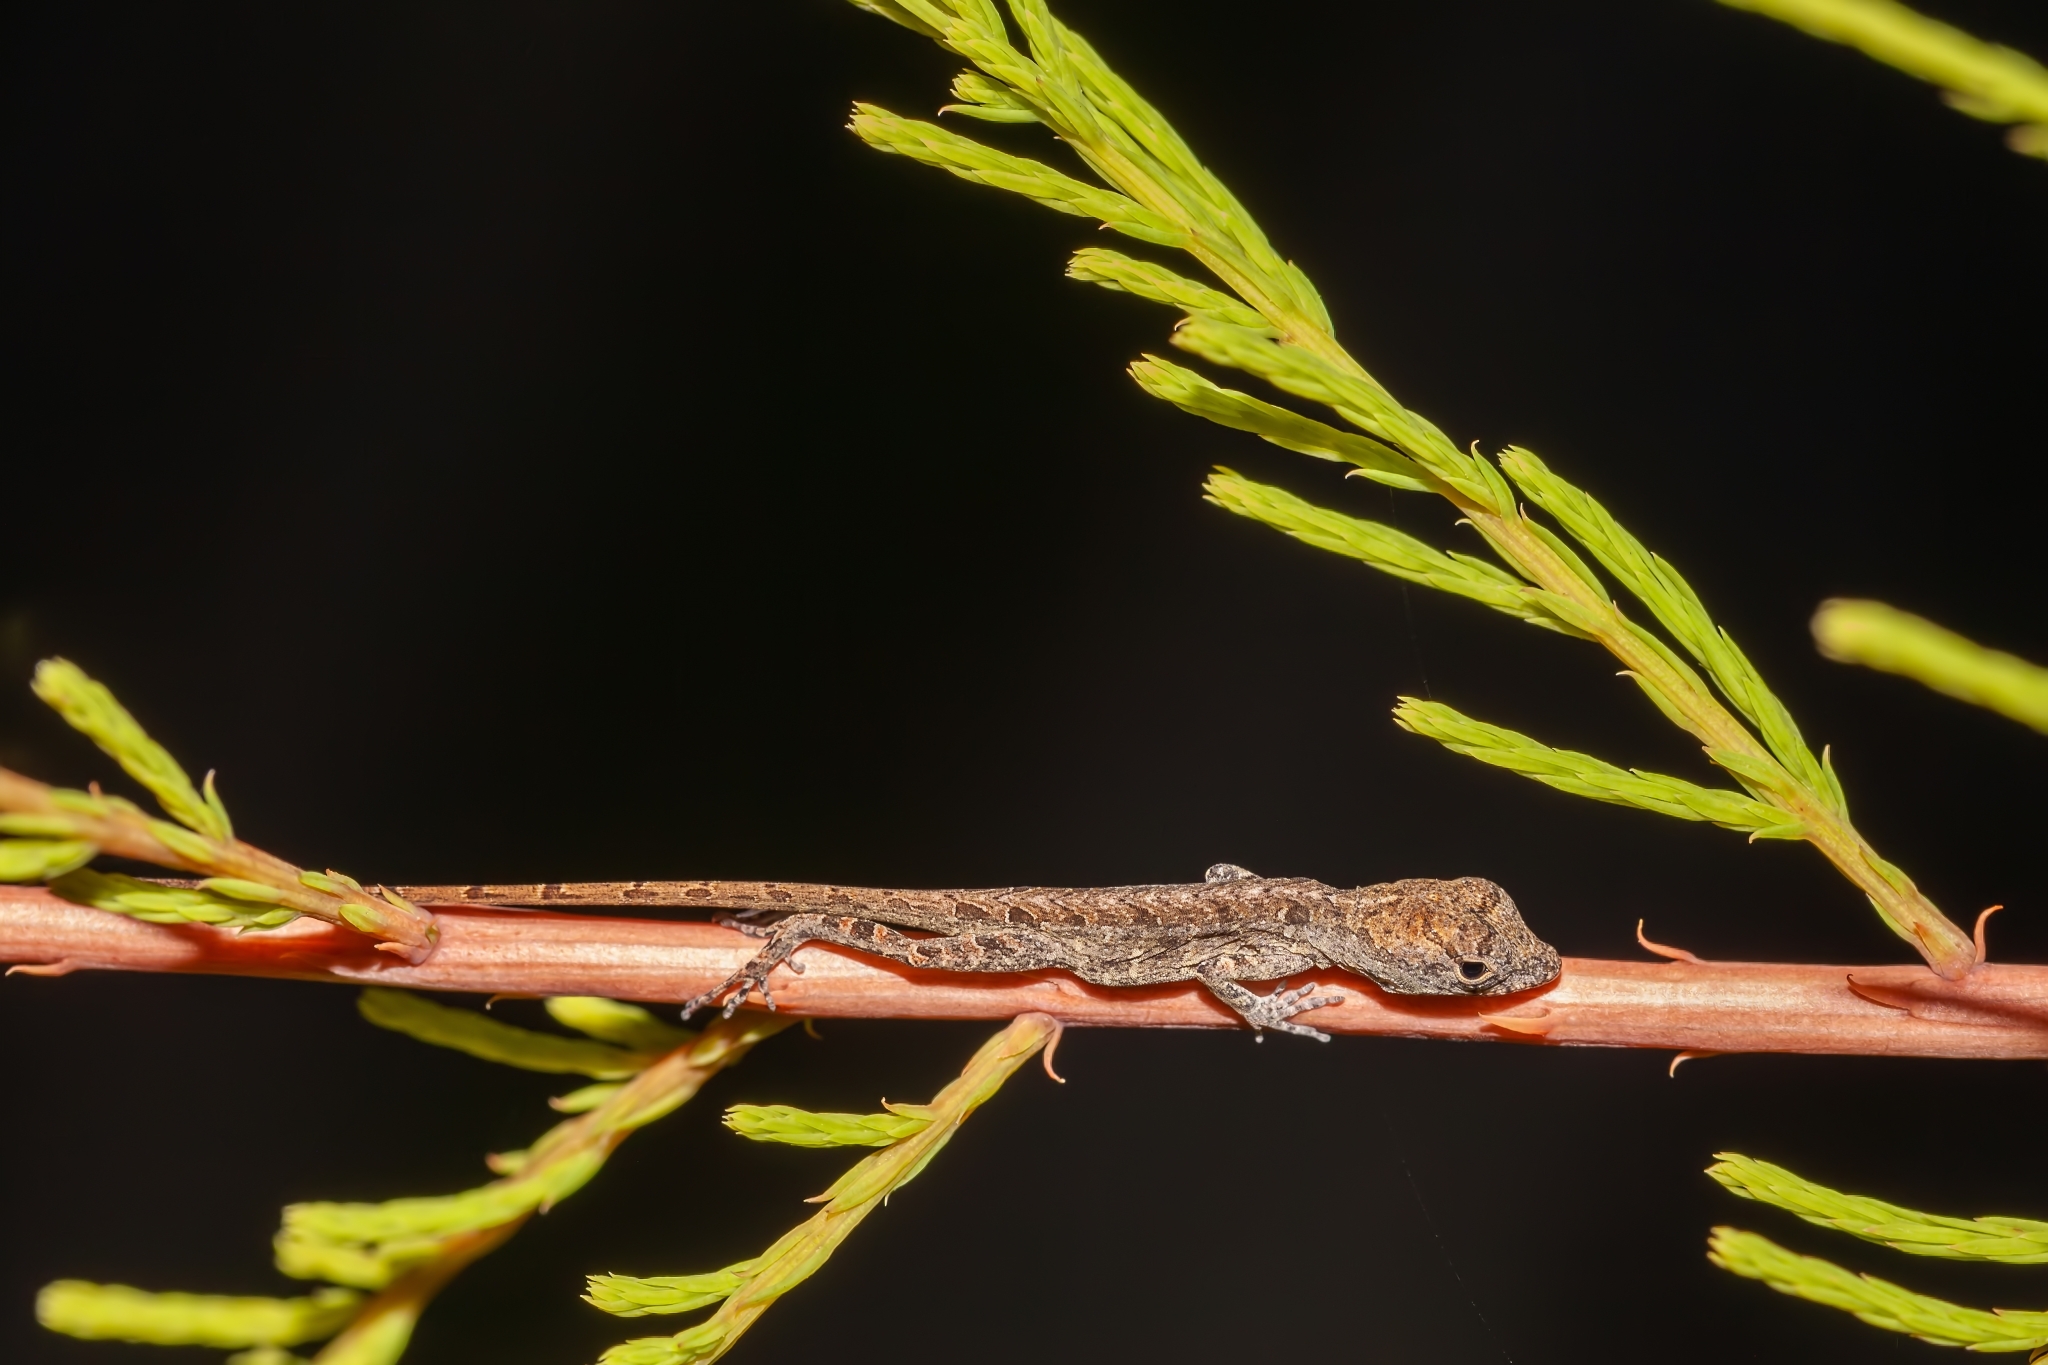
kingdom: Animalia
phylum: Chordata
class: Squamata
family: Dactyloidae
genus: Anolis
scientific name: Anolis sagrei
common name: Brown anole
